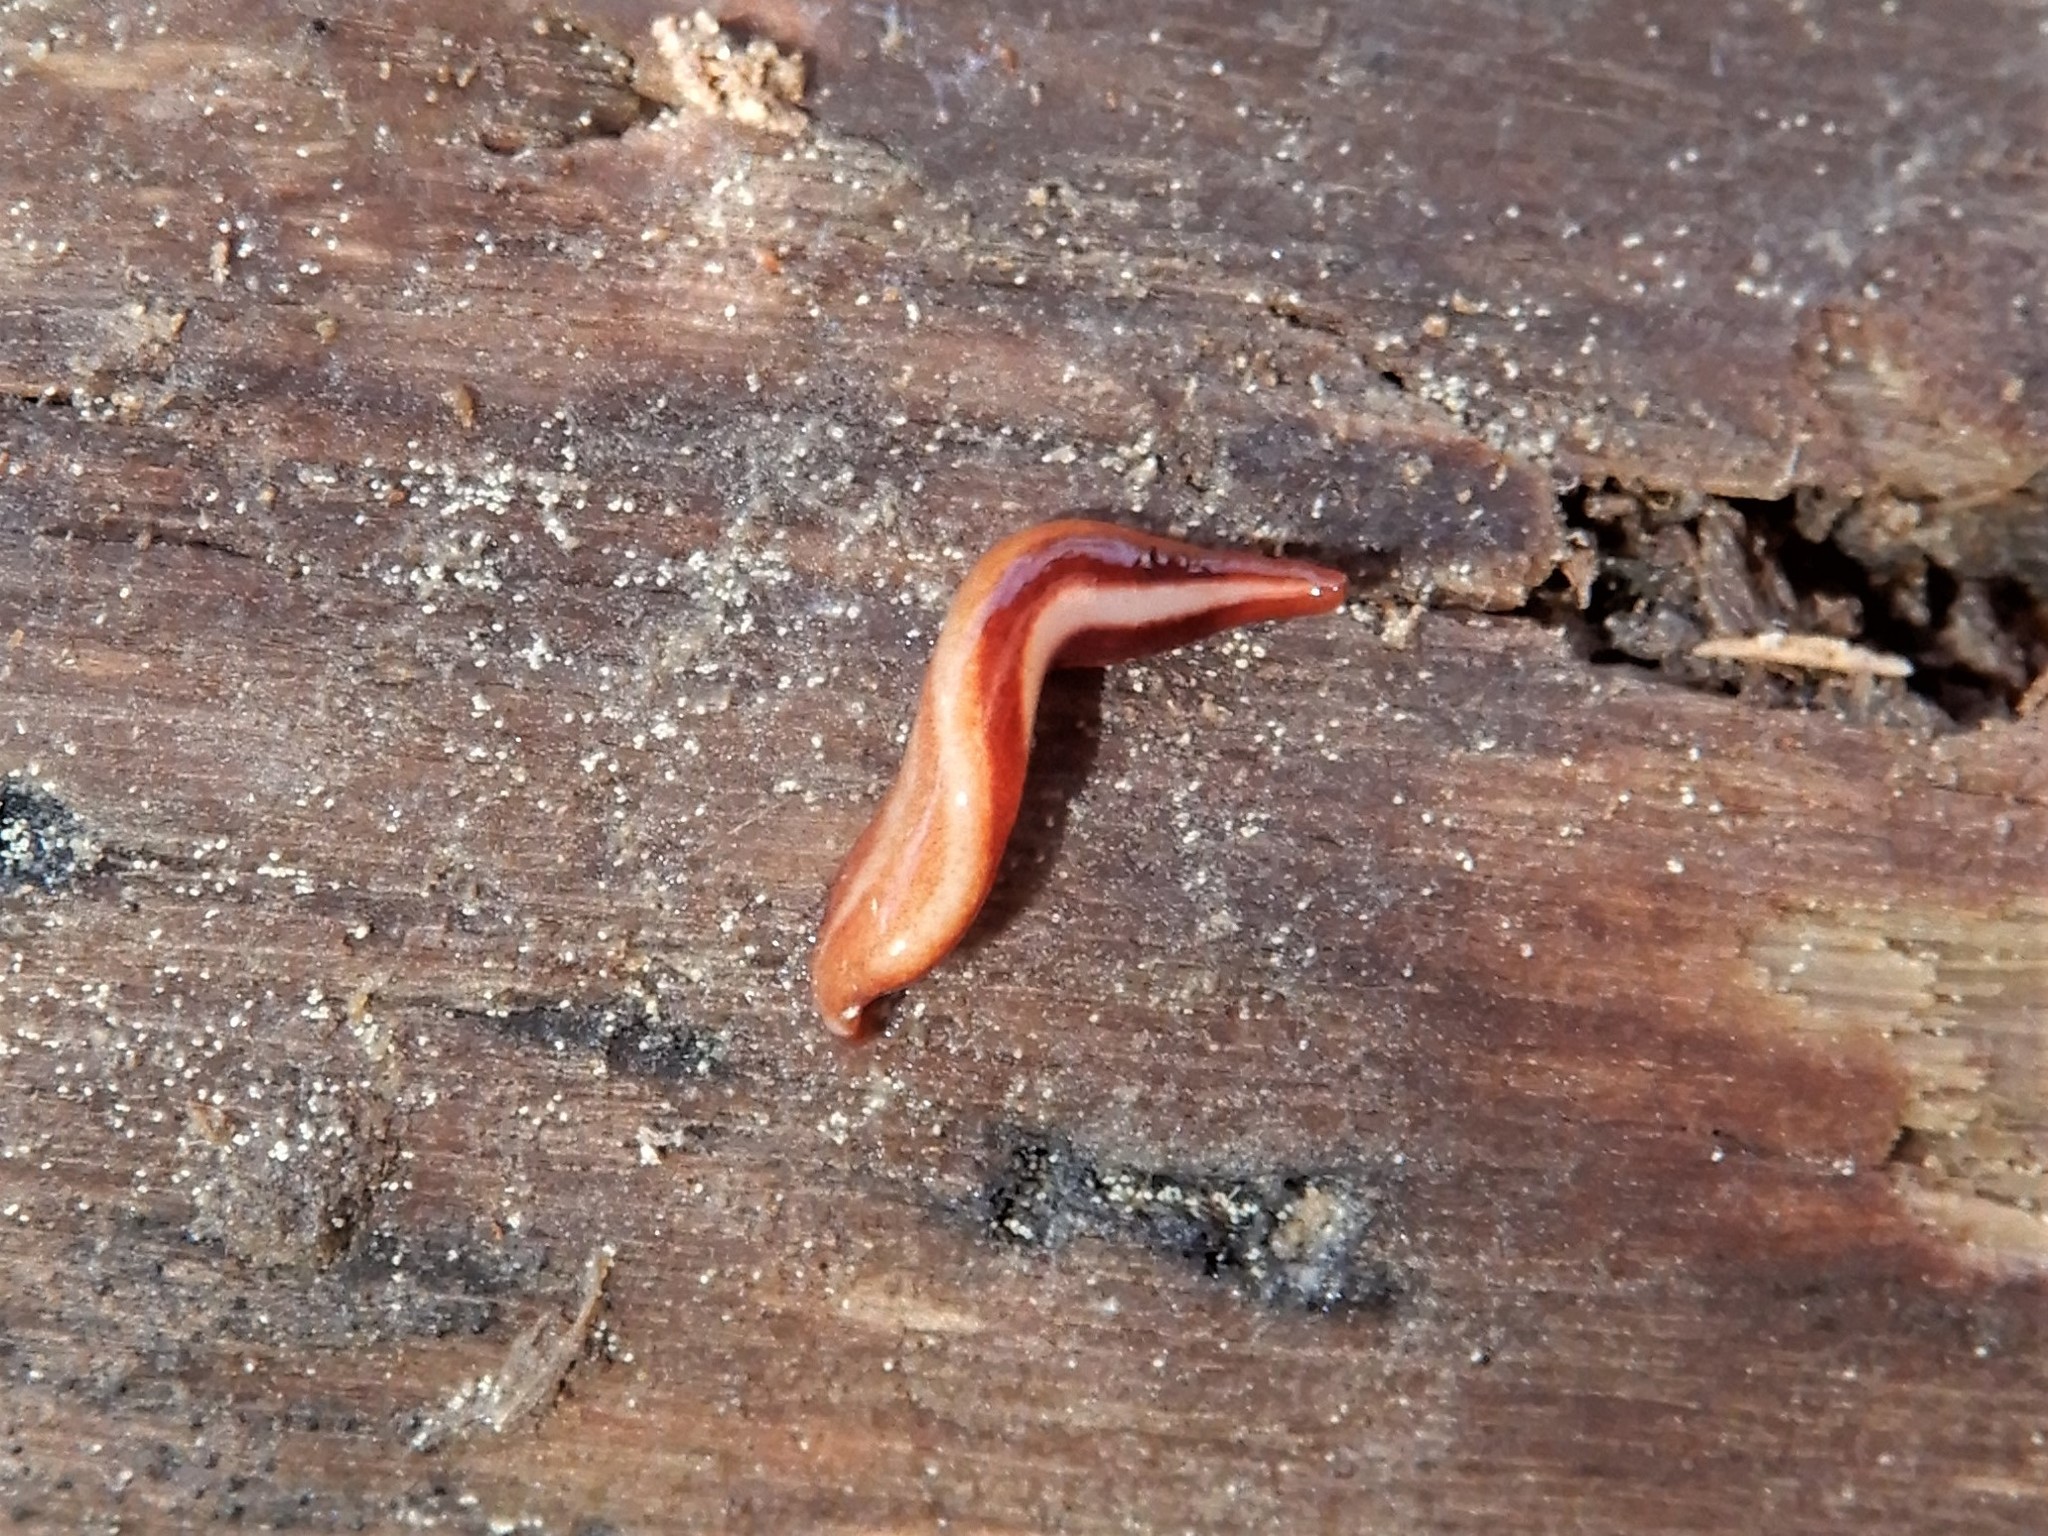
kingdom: Animalia
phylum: Platyhelminthes
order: Tricladida
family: Geoplanidae
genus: Australopacifica
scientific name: Australopacifica aucklandica
